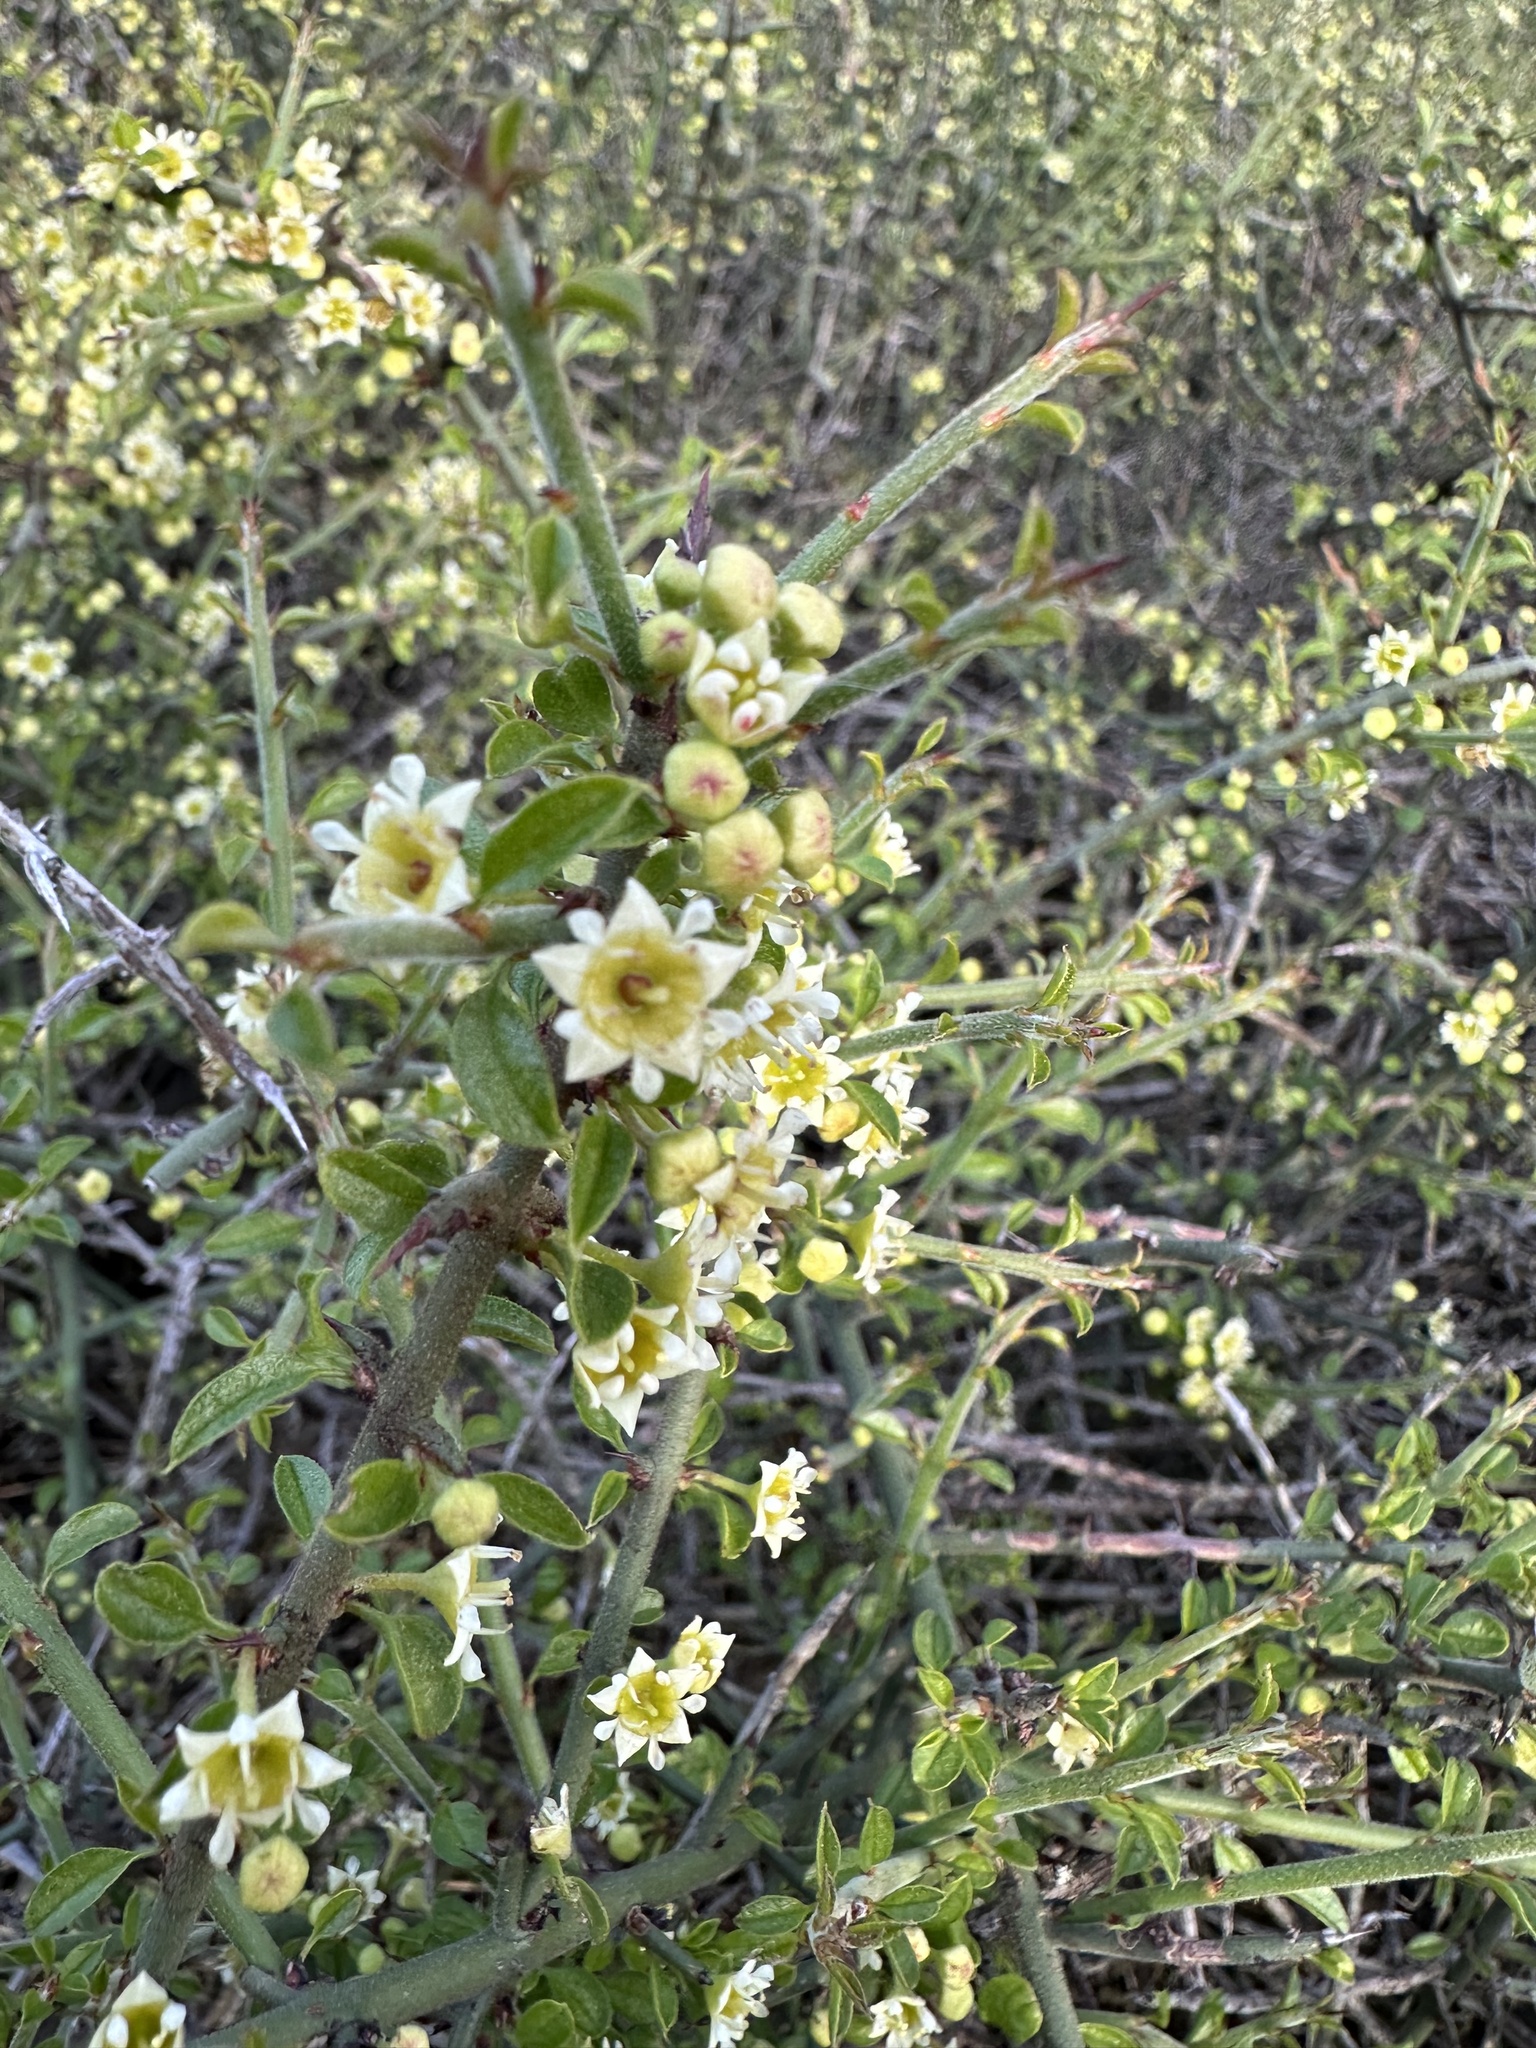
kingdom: Plantae
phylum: Tracheophyta
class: Magnoliopsida
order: Rosales
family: Rhamnaceae
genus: Adolphia
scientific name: Adolphia californica
